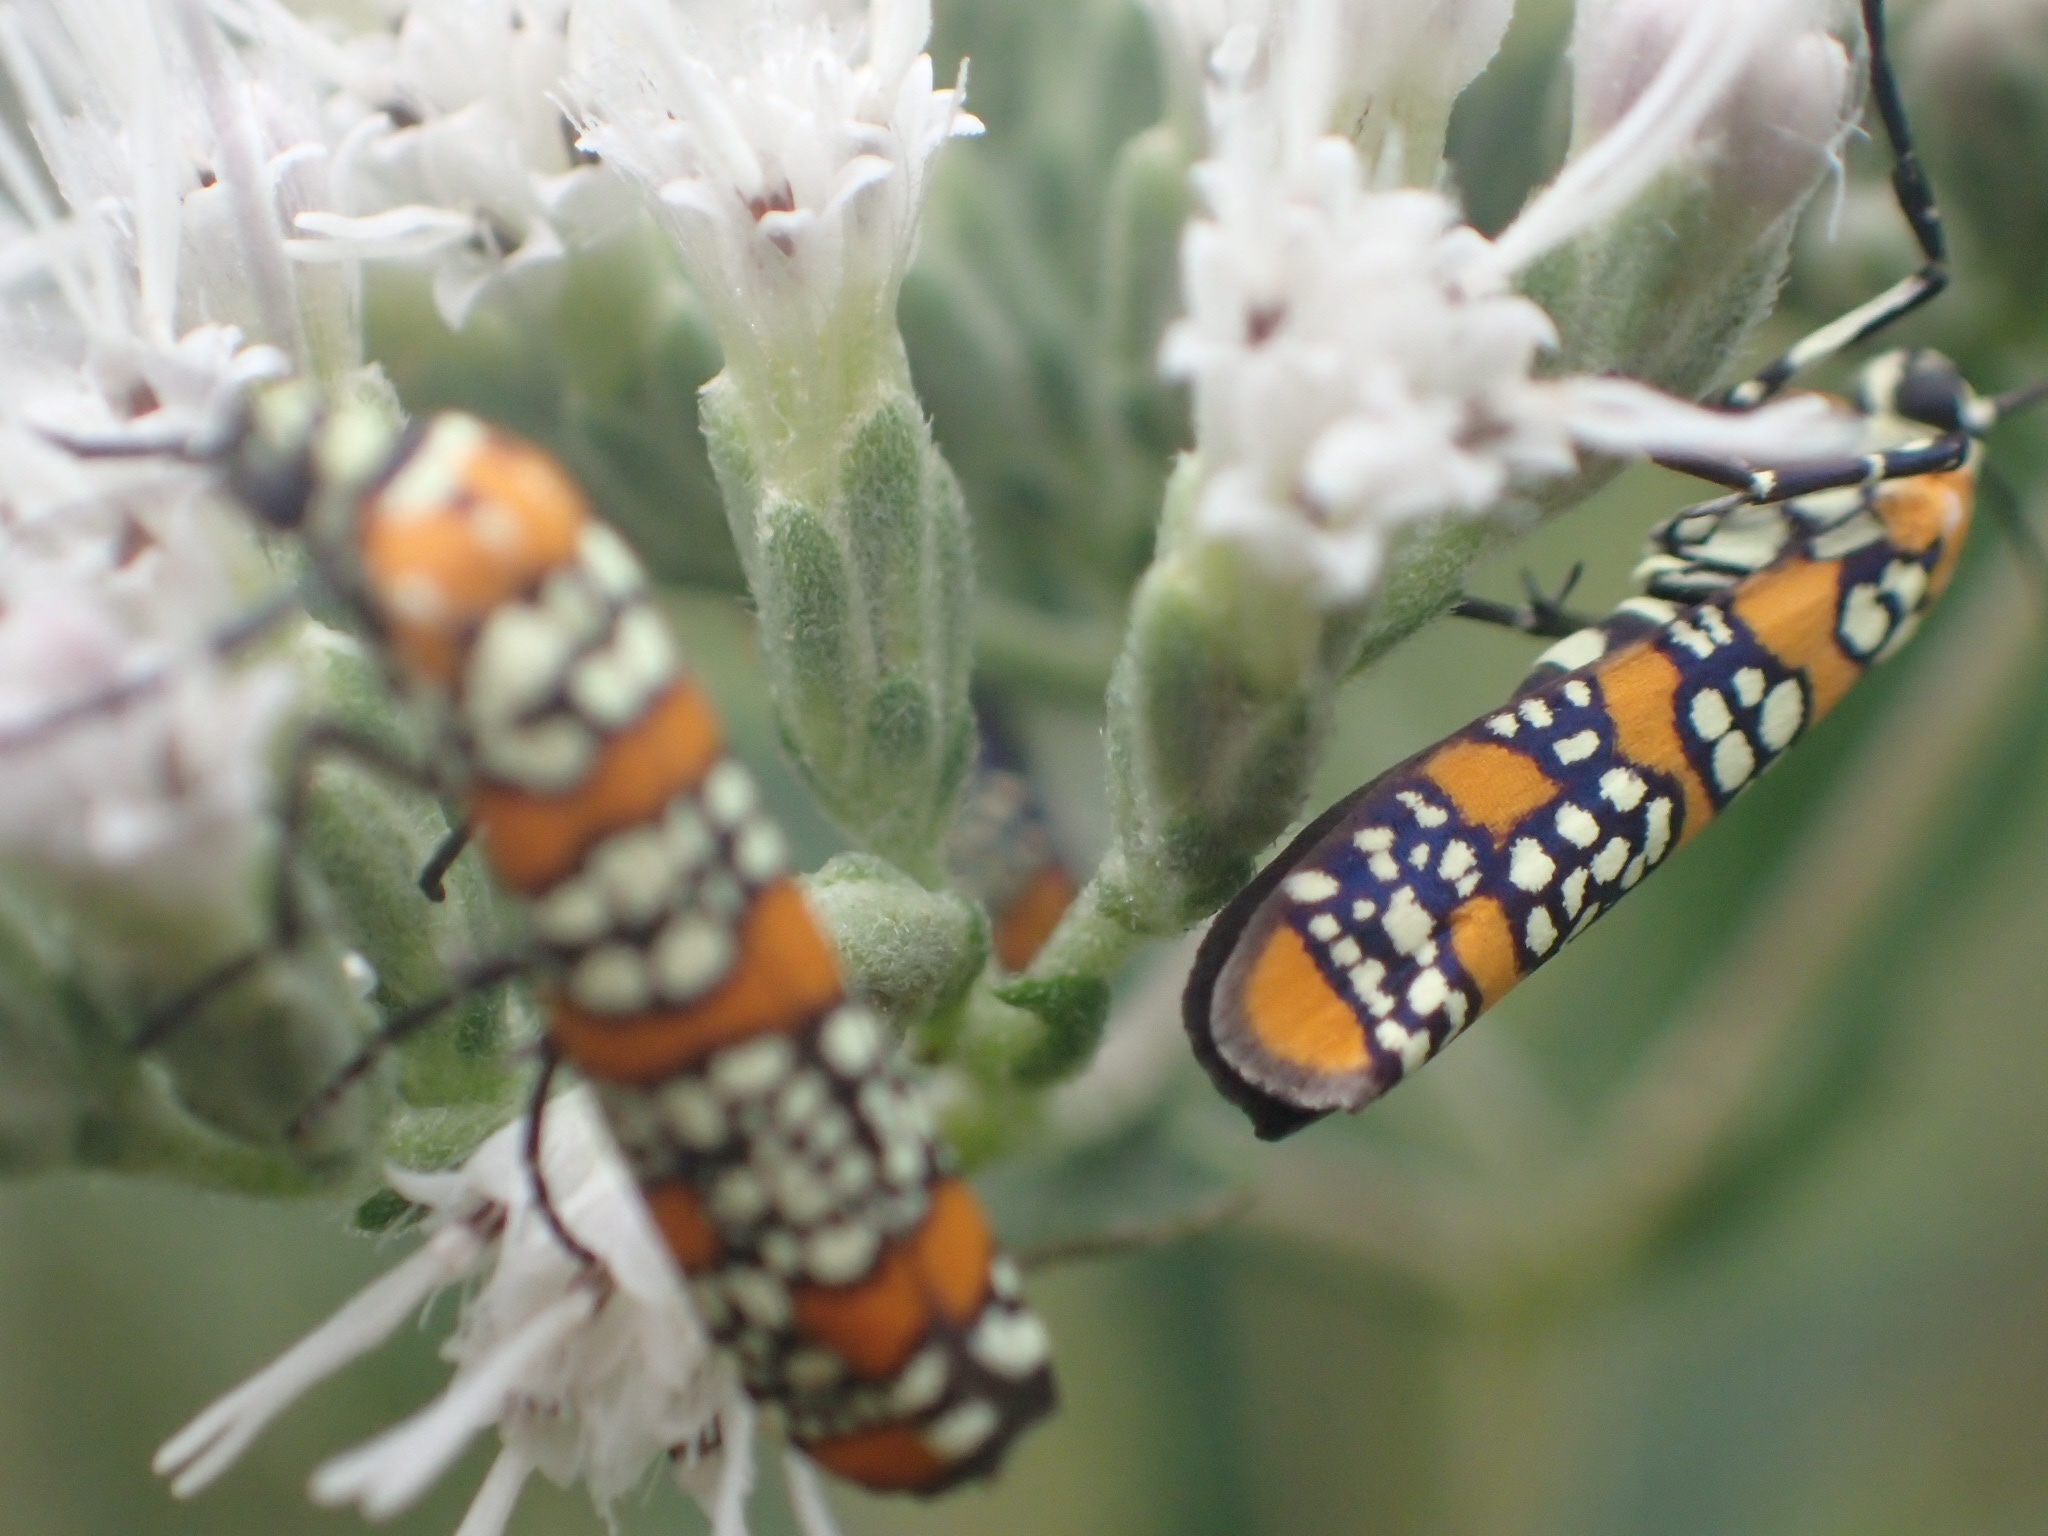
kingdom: Animalia
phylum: Arthropoda
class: Insecta
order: Lepidoptera
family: Attevidae
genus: Atteva
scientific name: Atteva punctella
